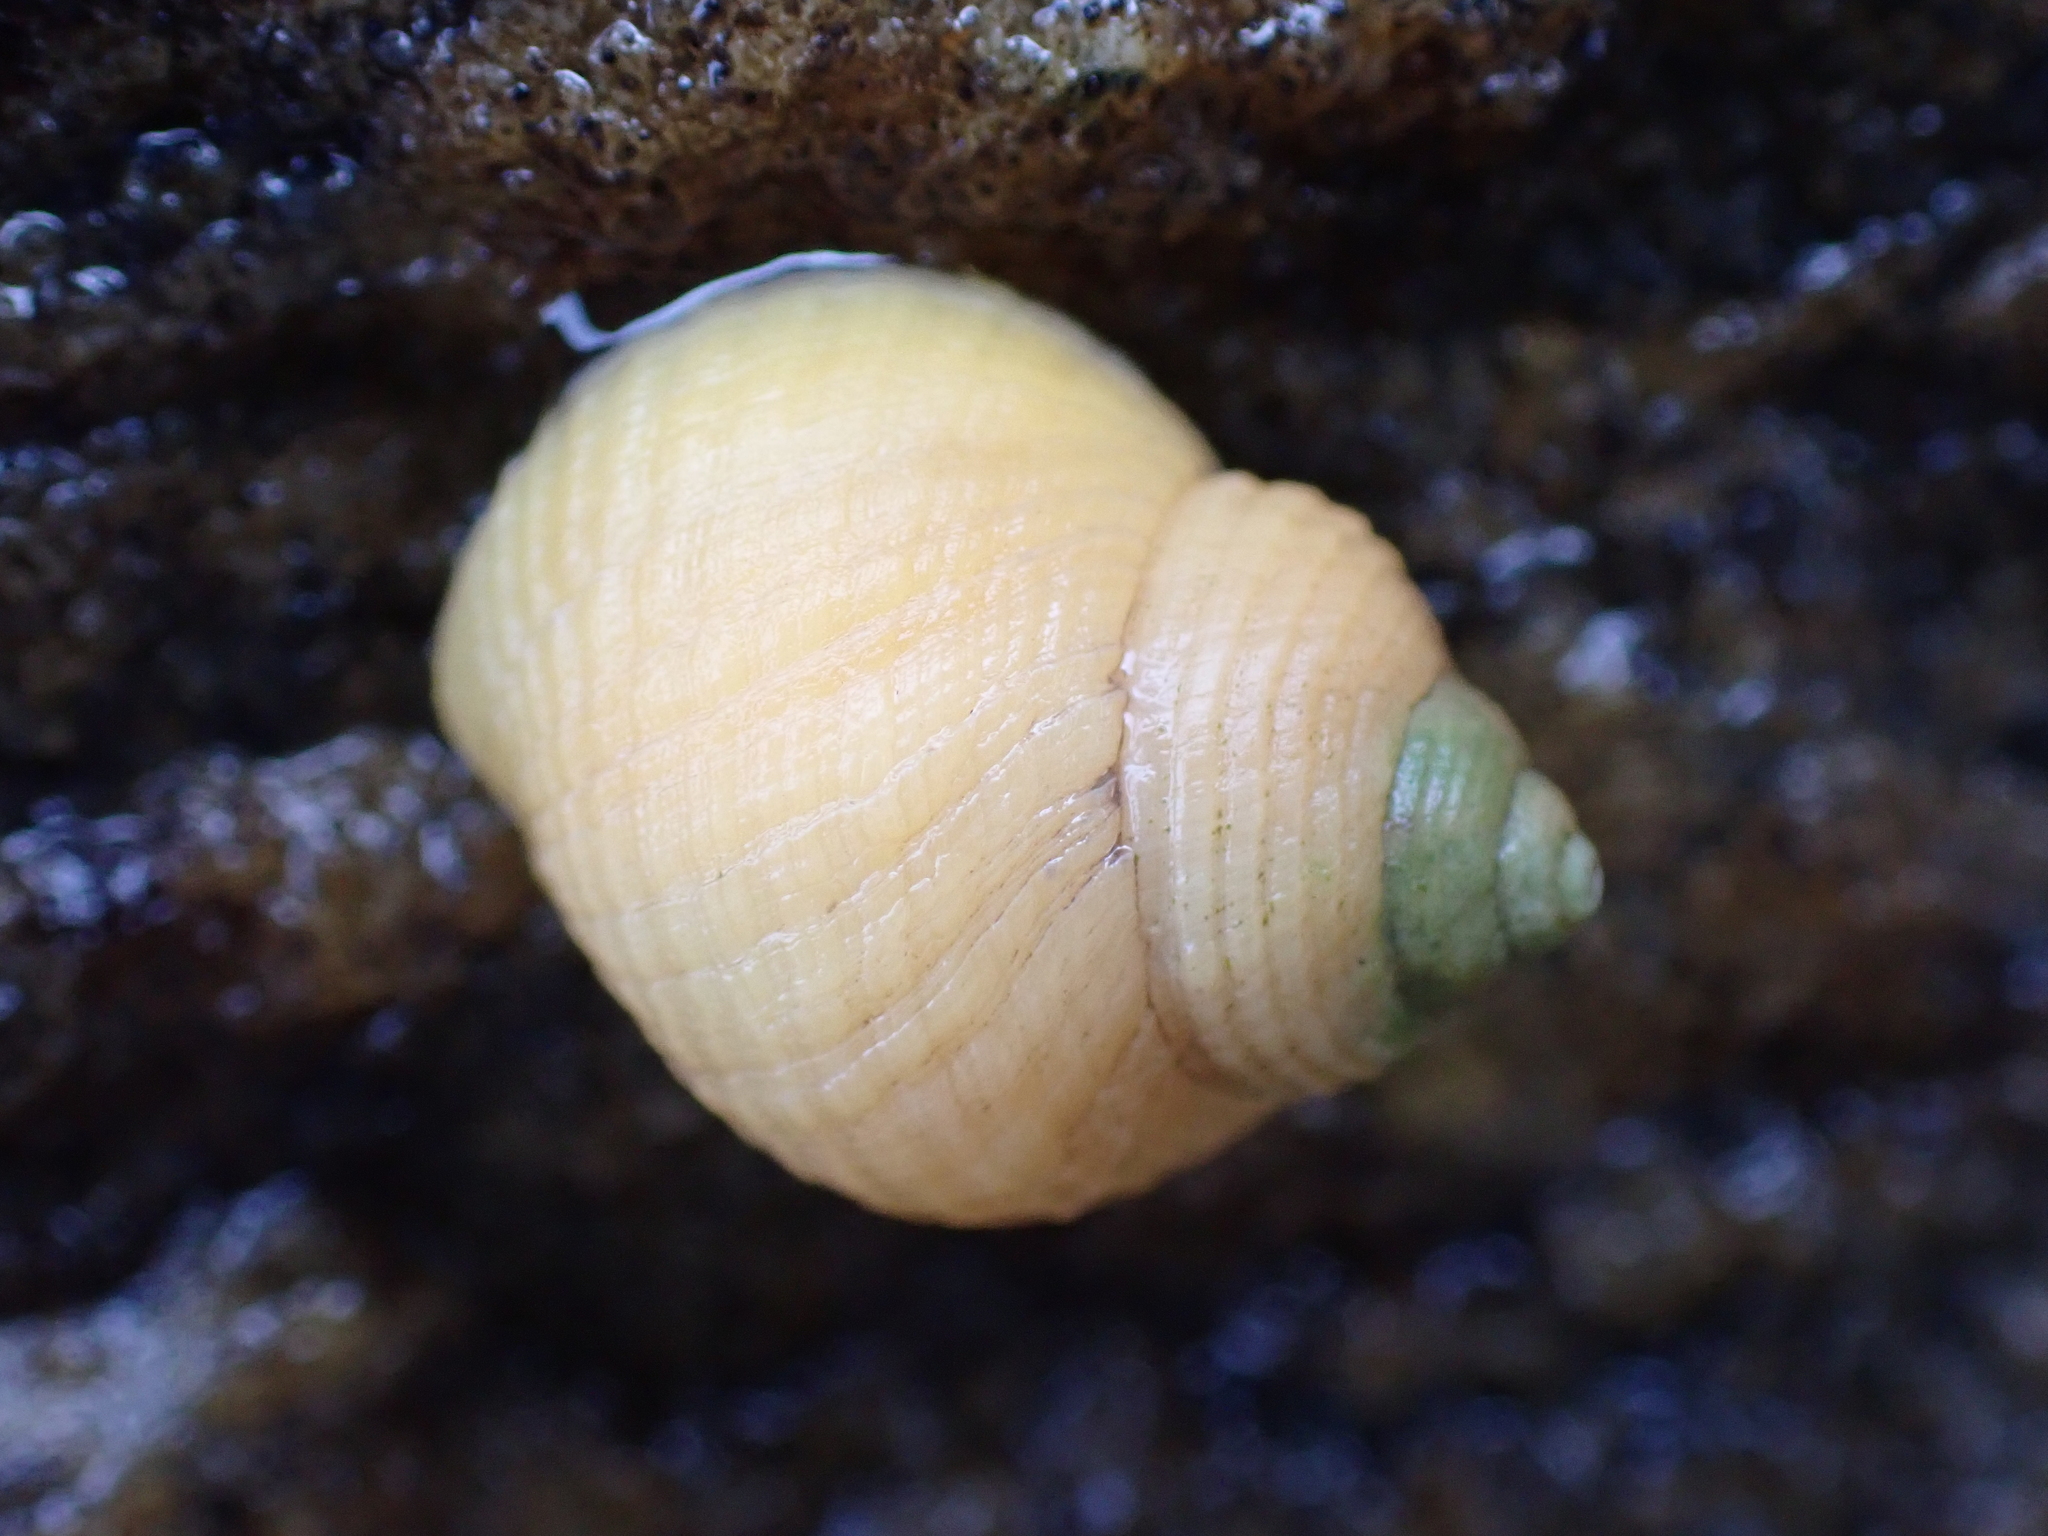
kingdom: Animalia
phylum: Mollusca
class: Gastropoda
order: Littorinimorpha
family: Littorinidae
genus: Littorina
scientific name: Littorina saxatilis
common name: Black-lined periwinkle
